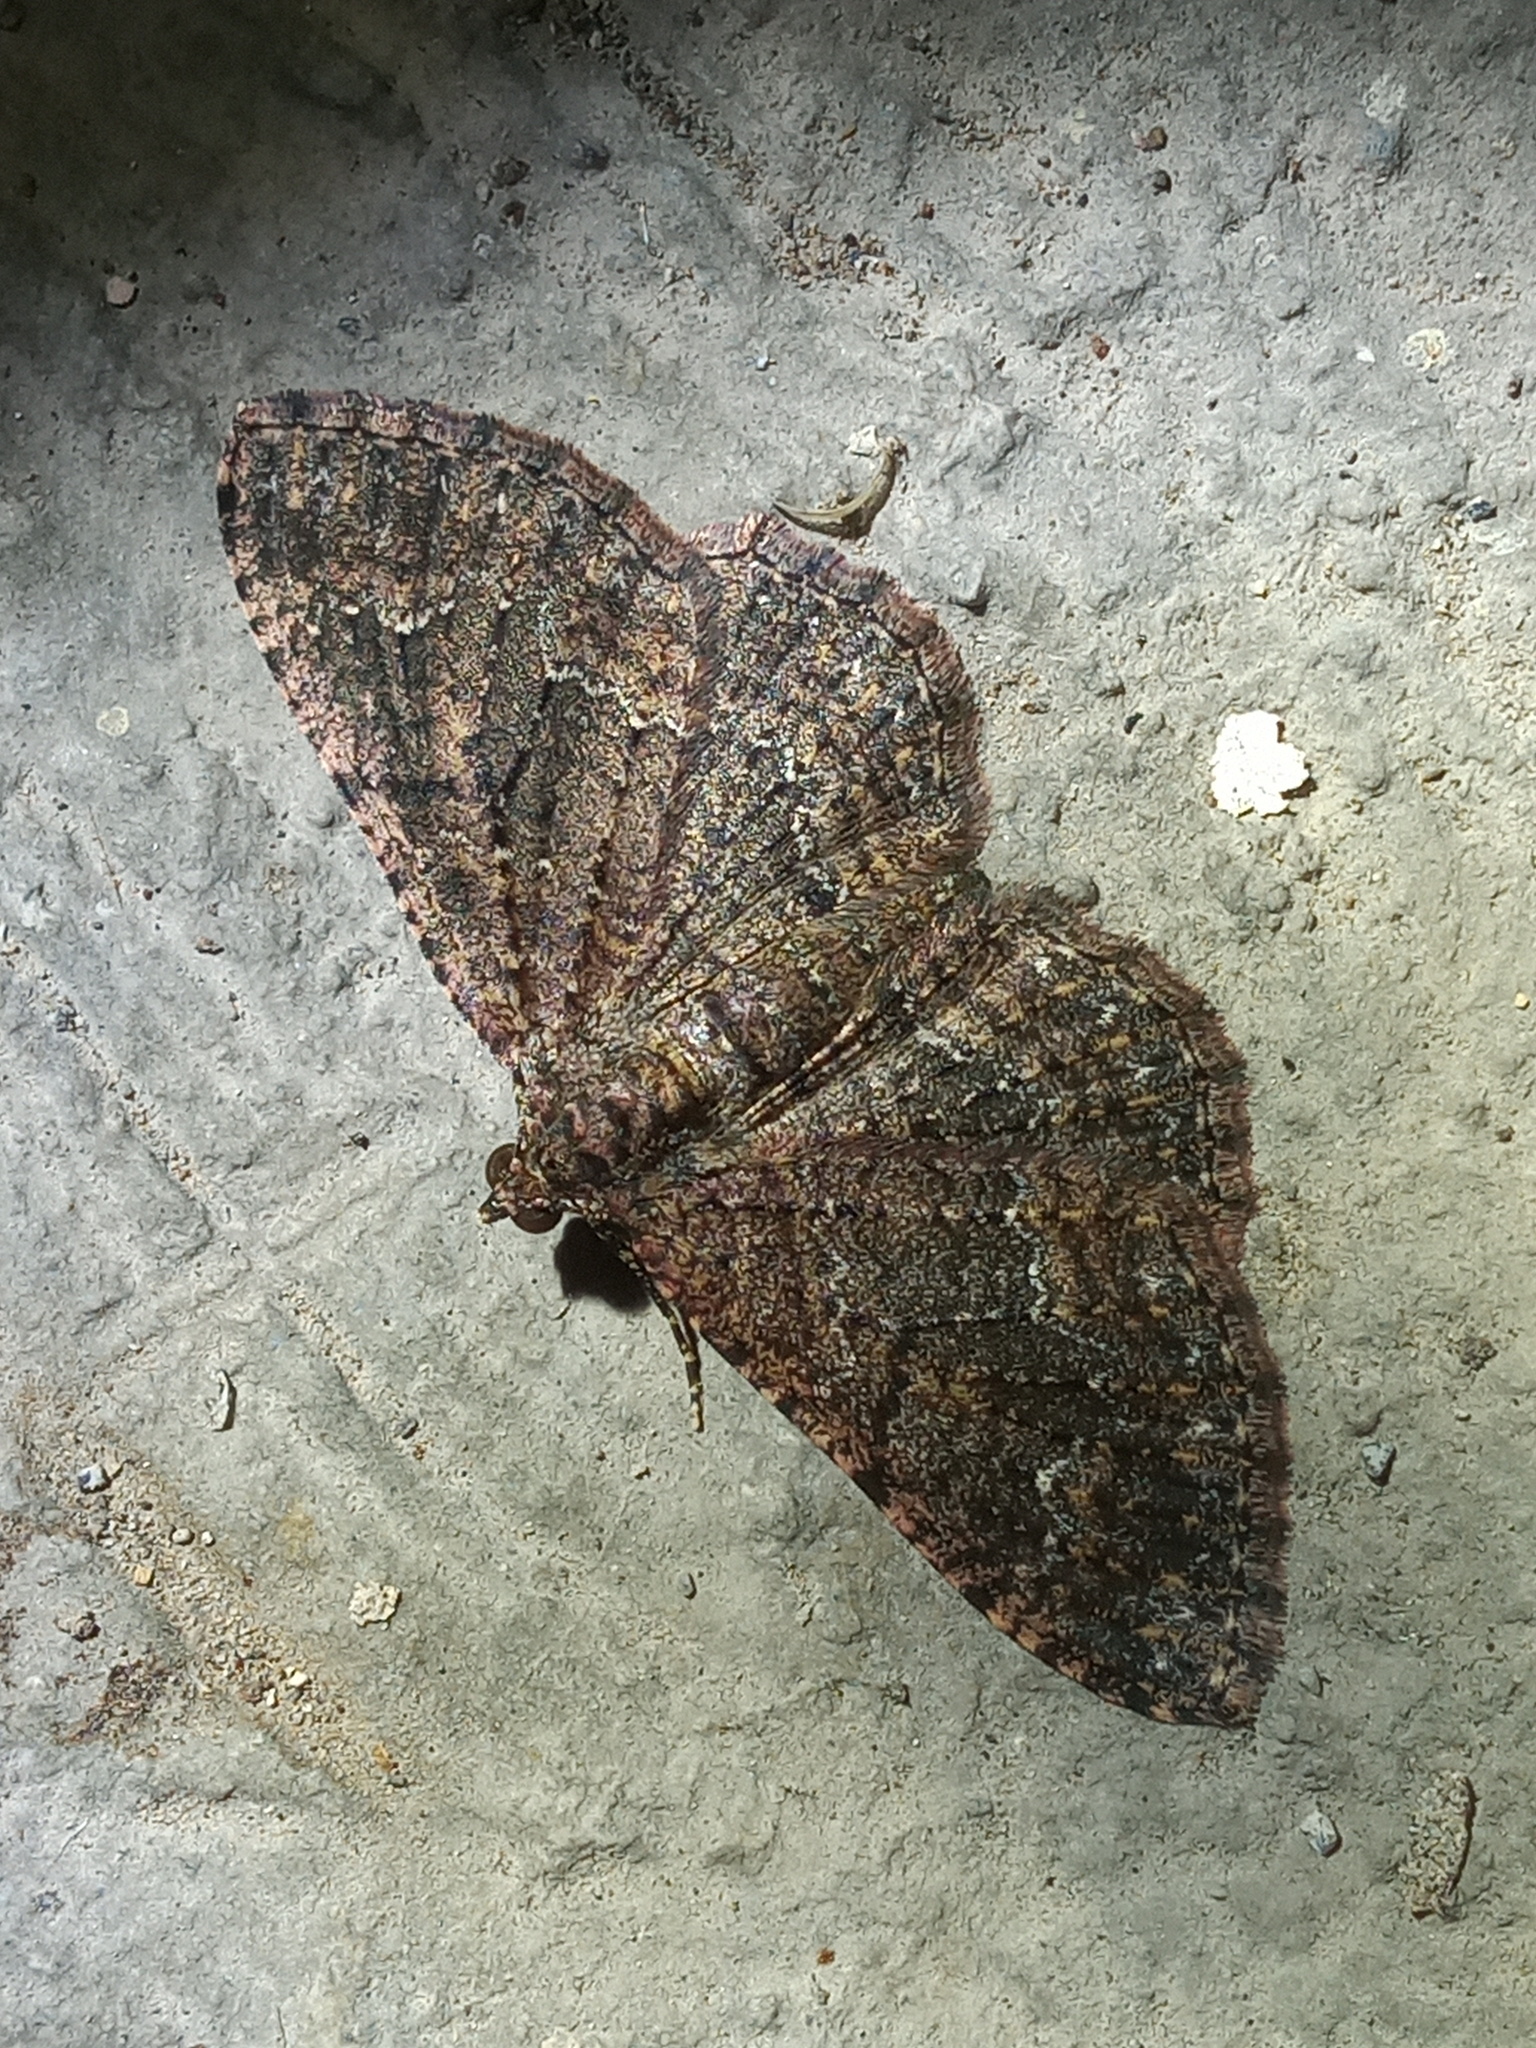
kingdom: Animalia
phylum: Arthropoda
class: Insecta
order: Lepidoptera
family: Geometridae
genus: Disclisioprocta
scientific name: Disclisioprocta stellata
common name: Somber carpet
